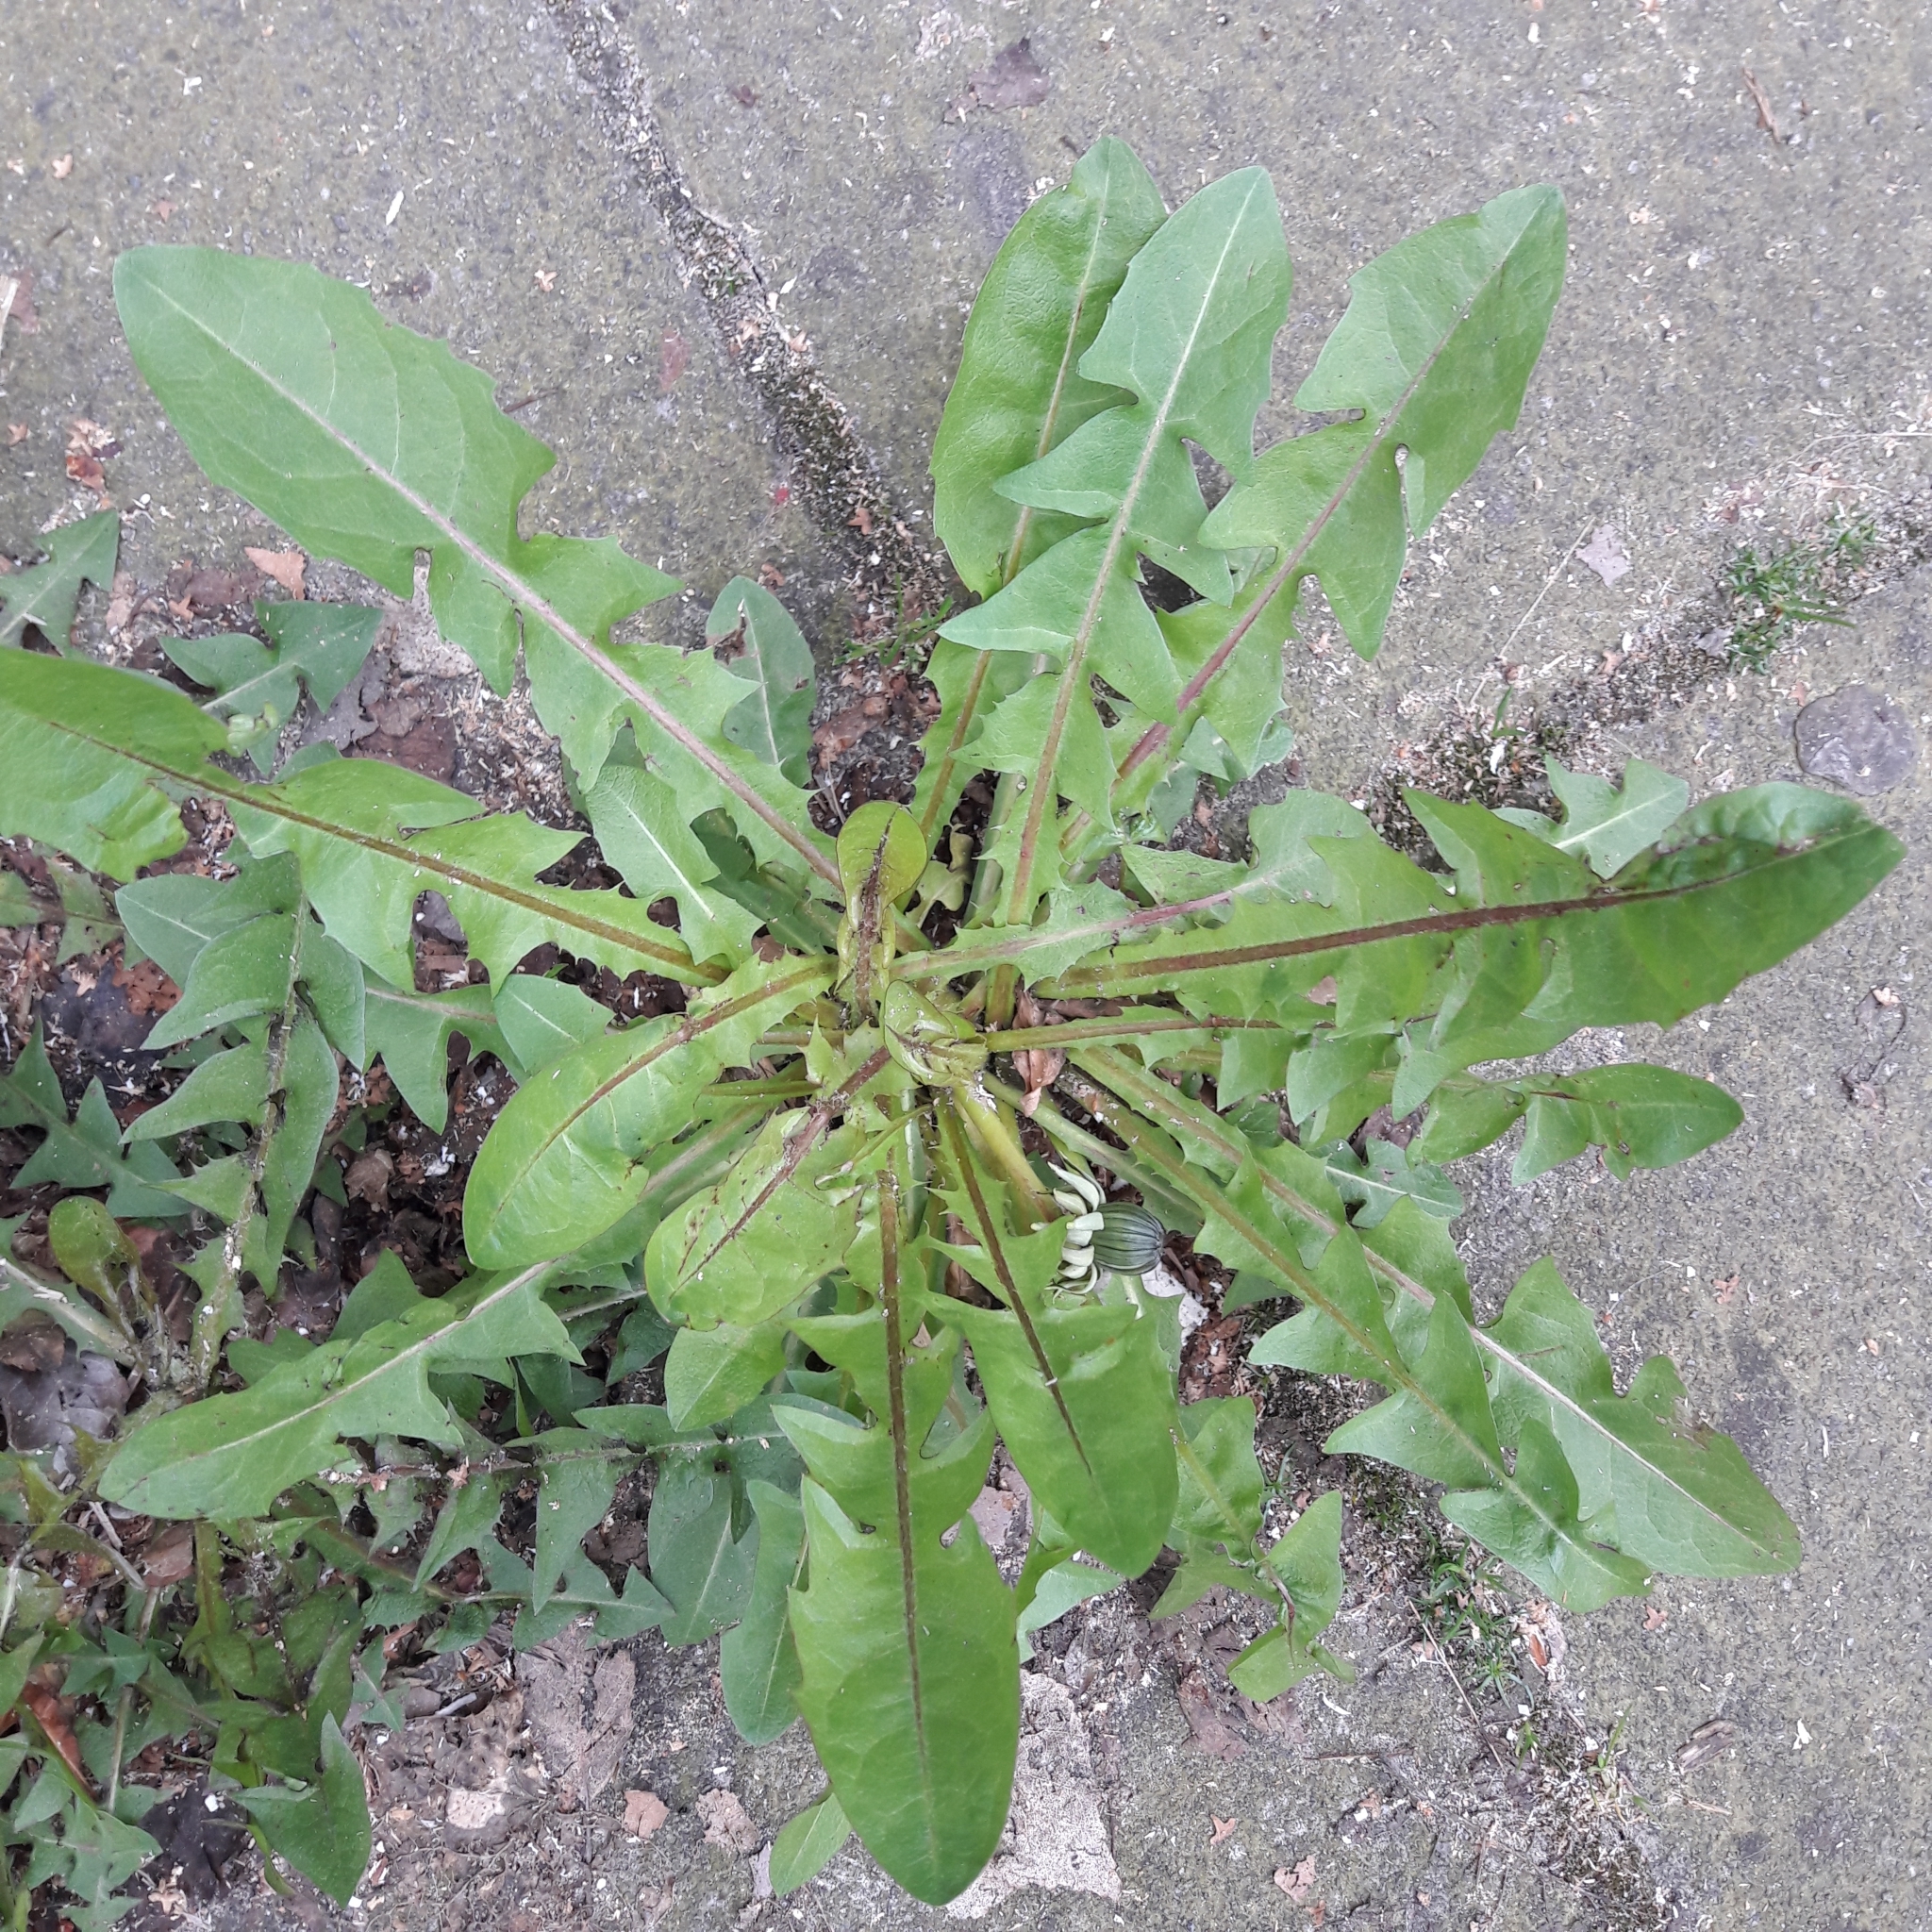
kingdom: Plantae
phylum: Tracheophyta
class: Magnoliopsida
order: Asterales
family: Asteraceae
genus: Taraxacum
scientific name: Taraxacum officinale
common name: Common dandelion
